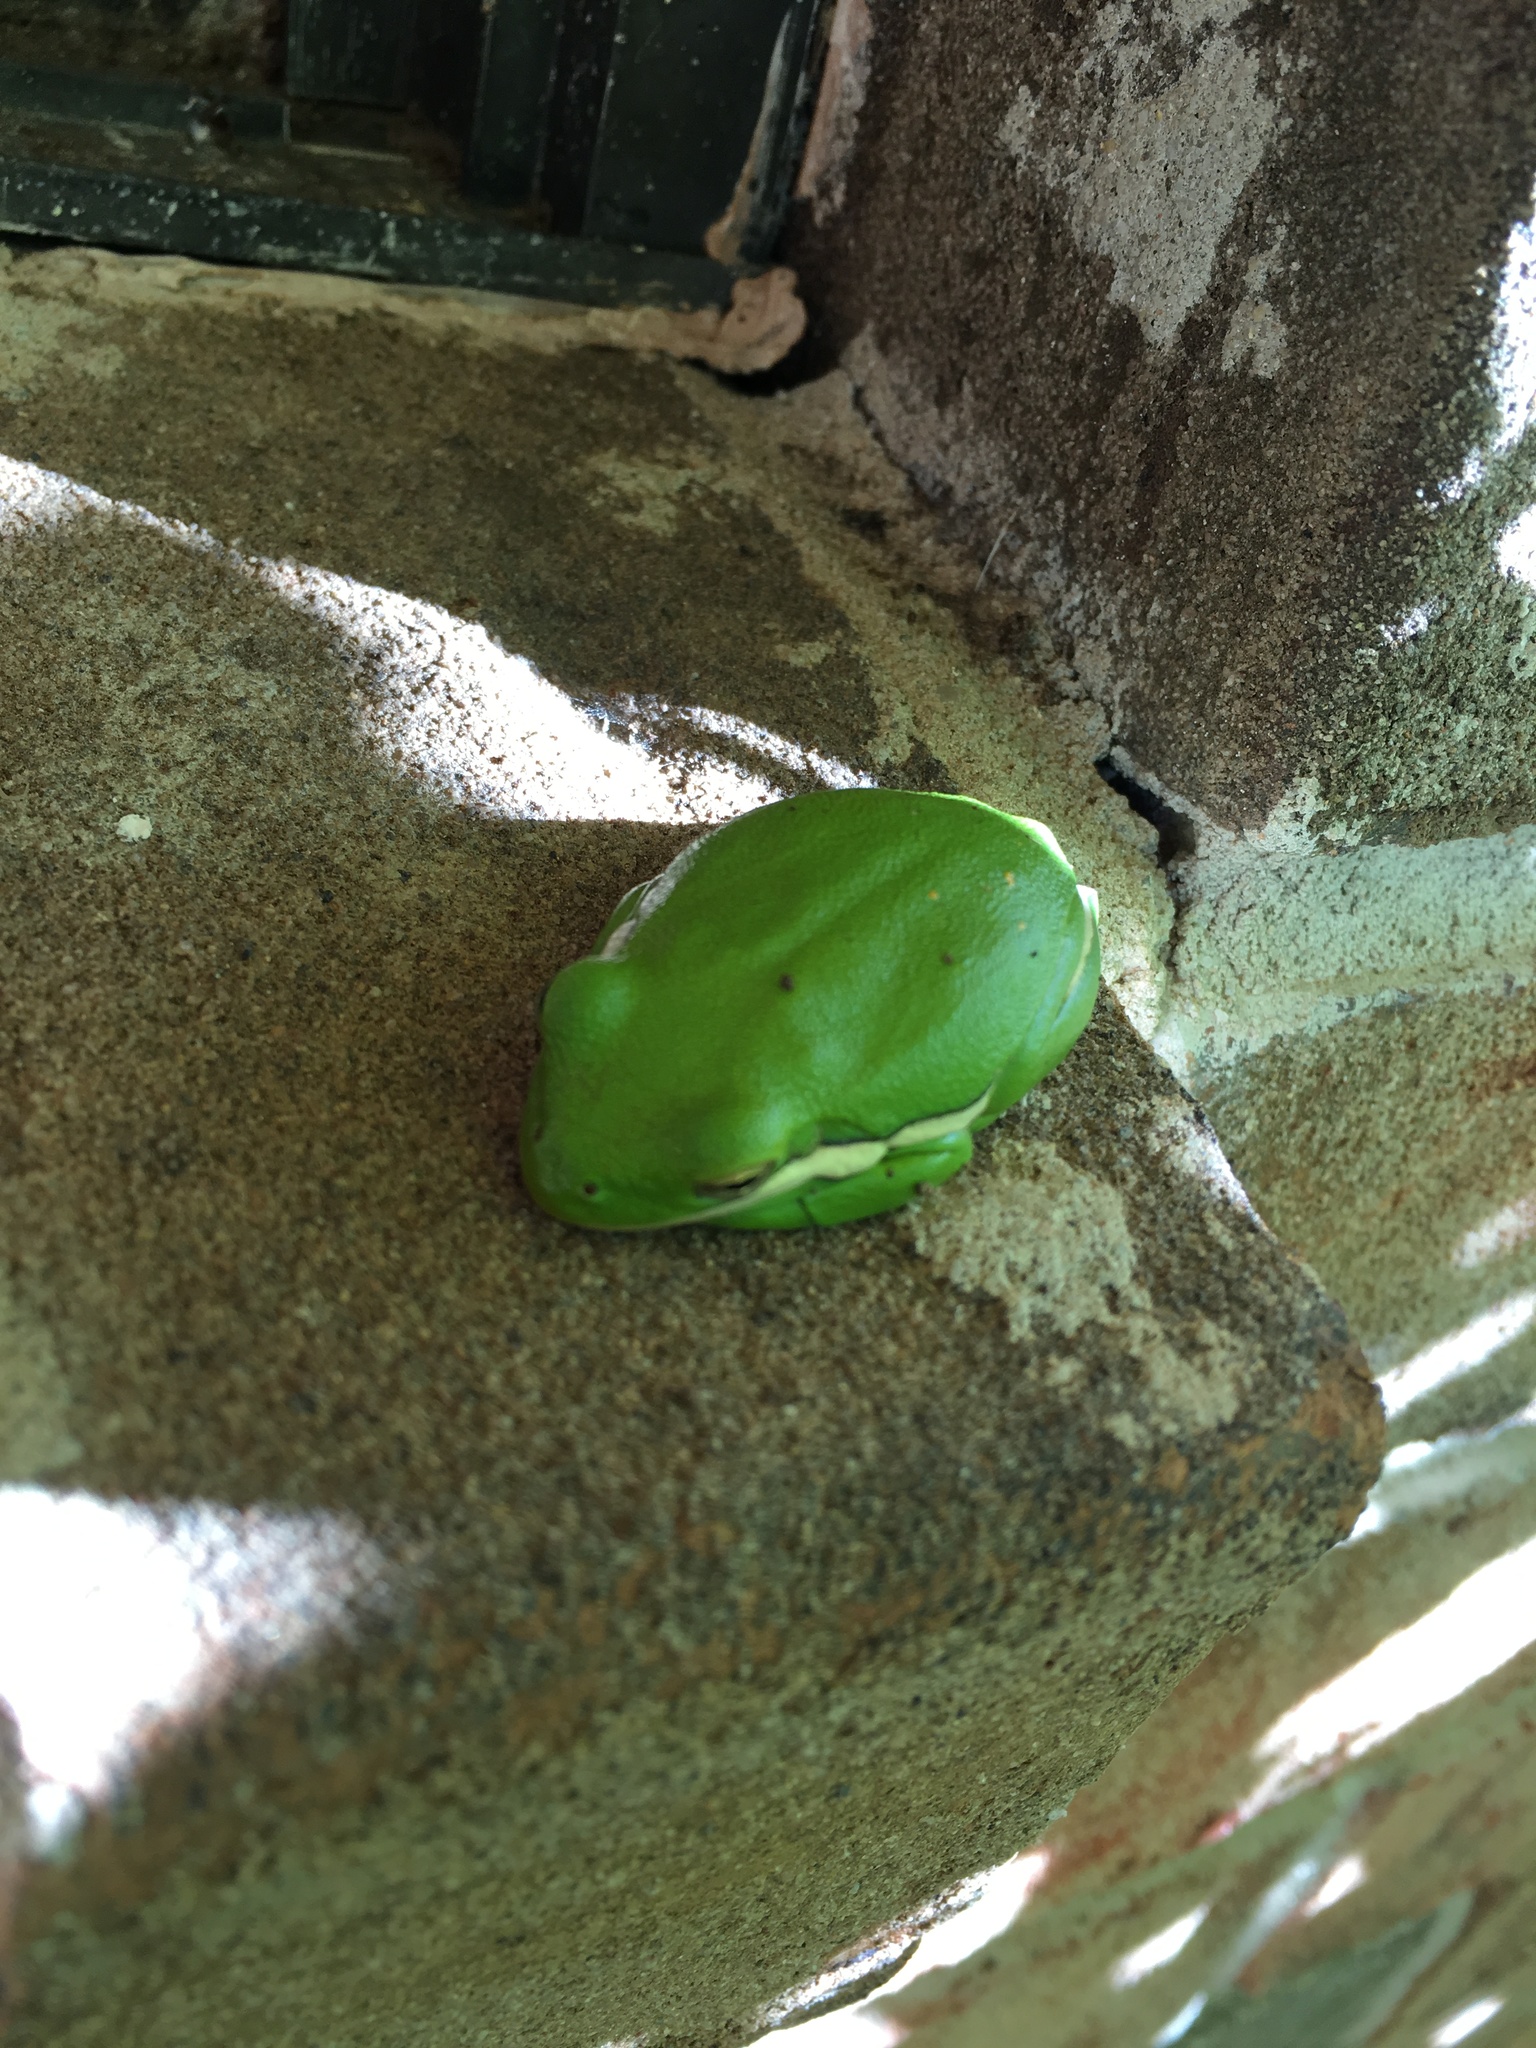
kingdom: Animalia
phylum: Chordata
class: Amphibia
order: Anura
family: Hylidae
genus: Dryophytes
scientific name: Dryophytes cinereus
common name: Green treefrog
